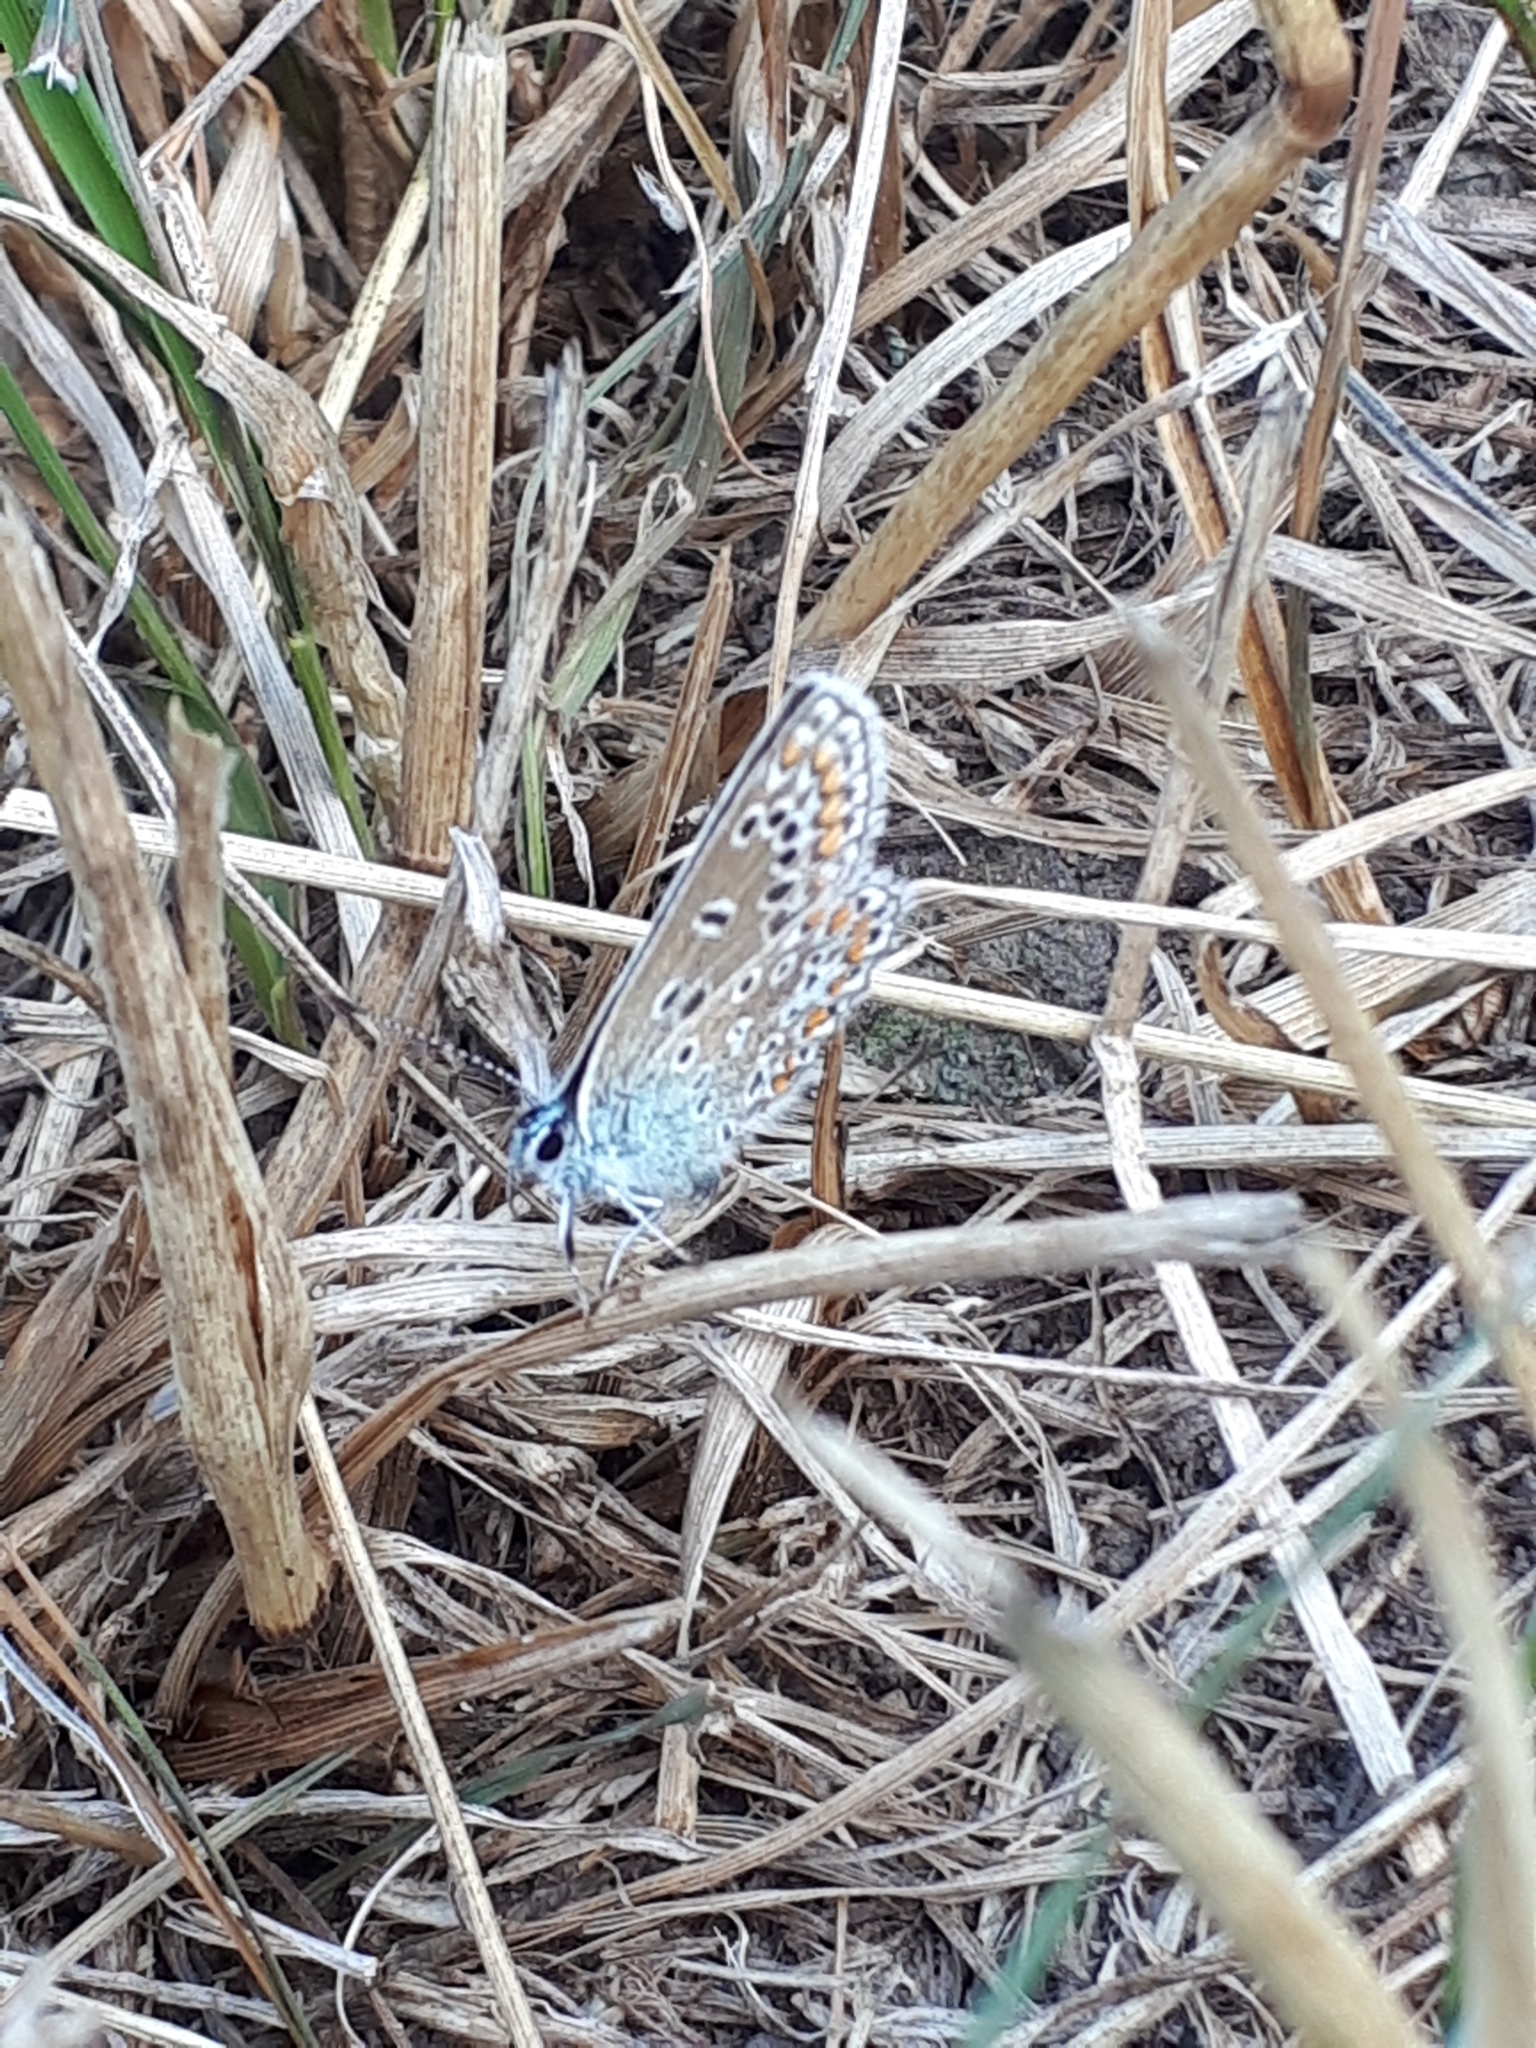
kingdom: Animalia
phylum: Arthropoda
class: Insecta
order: Lepidoptera
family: Lycaenidae
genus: Polyommatus
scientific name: Polyommatus icarus
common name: Common blue
